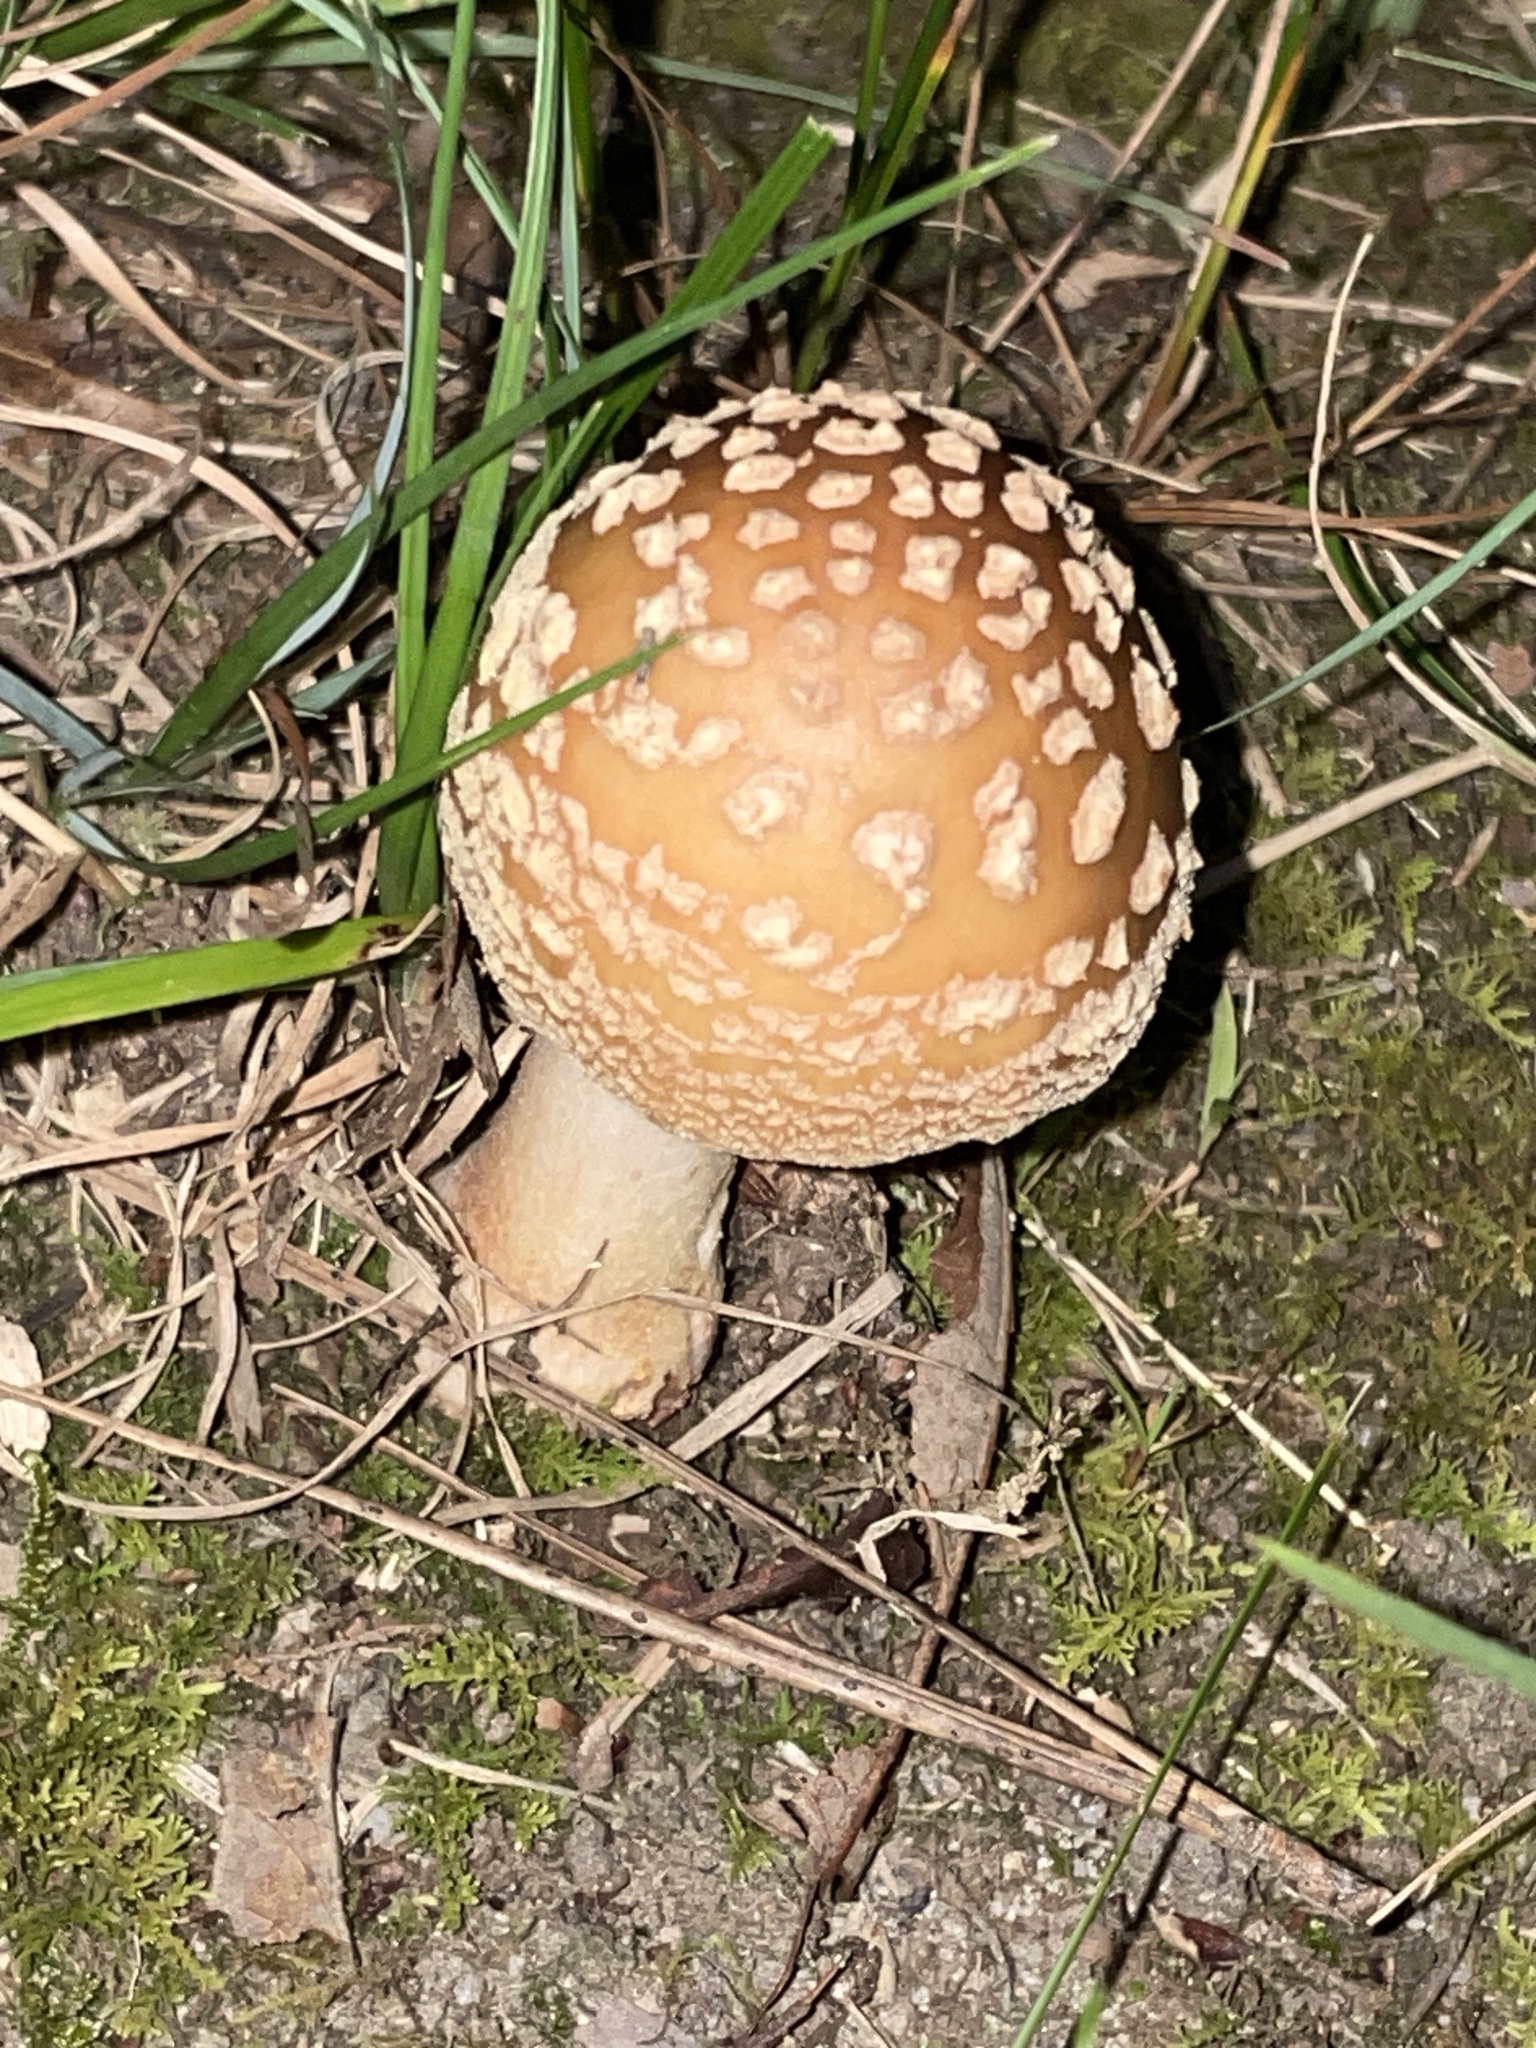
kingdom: Fungi
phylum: Basidiomycota
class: Agaricomycetes
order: Agaricales
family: Amanitaceae
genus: Amanita
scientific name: Amanita
